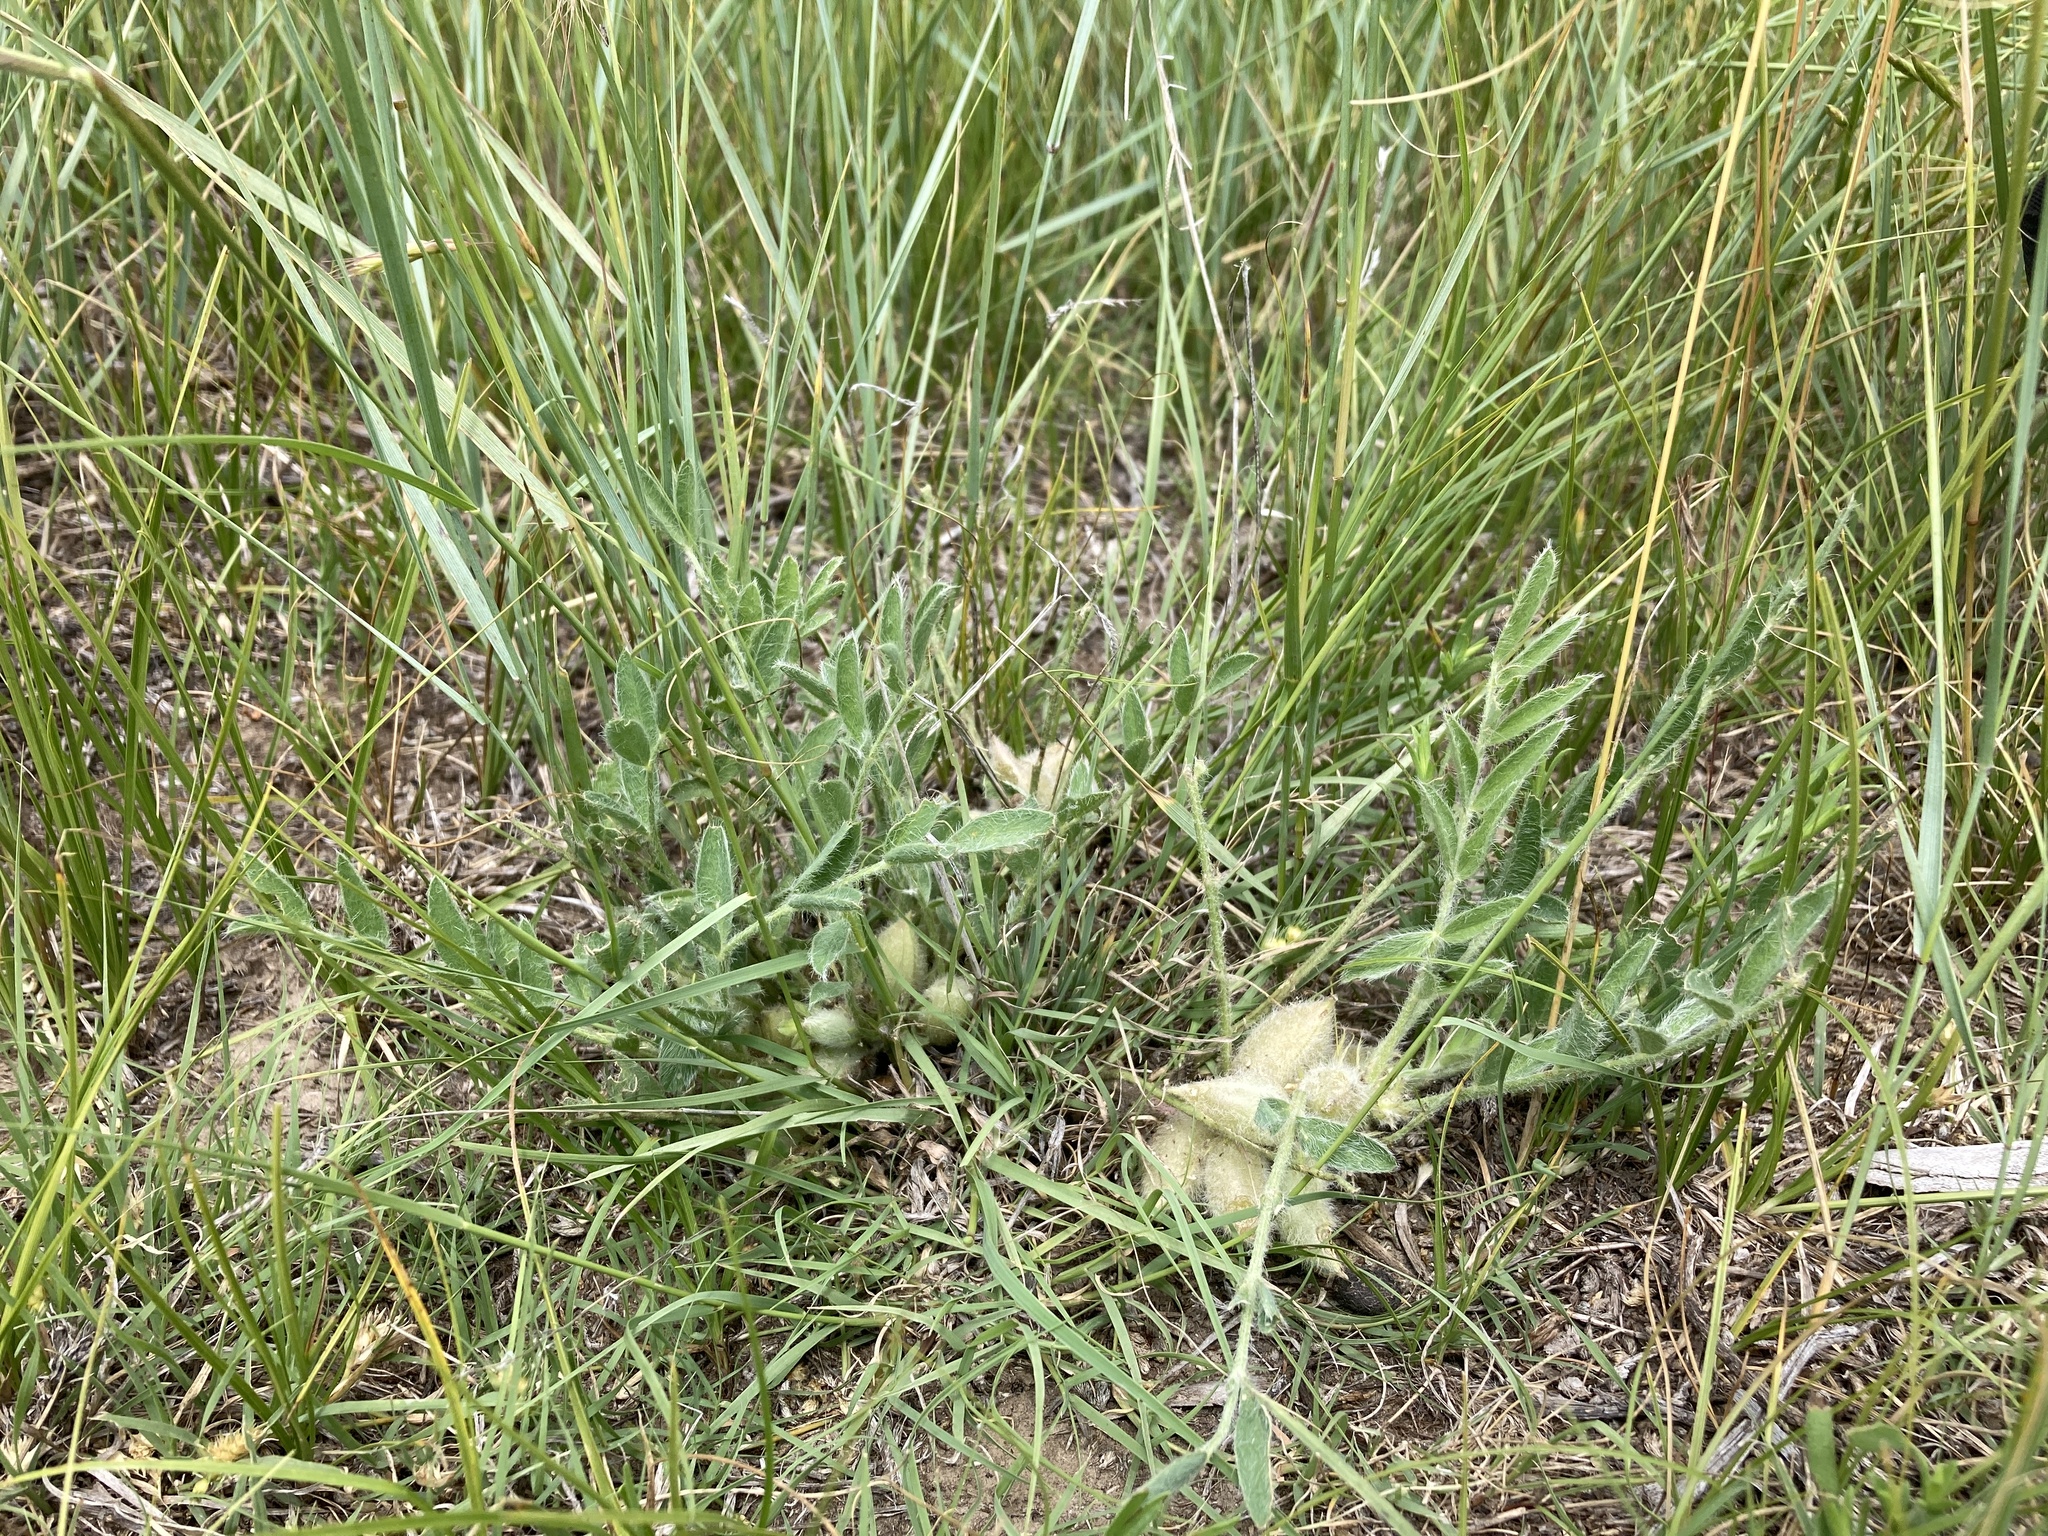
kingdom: Plantae
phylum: Tracheophyta
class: Magnoliopsida
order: Fabales
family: Fabaceae
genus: Astragalus
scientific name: Astragalus lotiflorus
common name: Lotus milk-vetch
